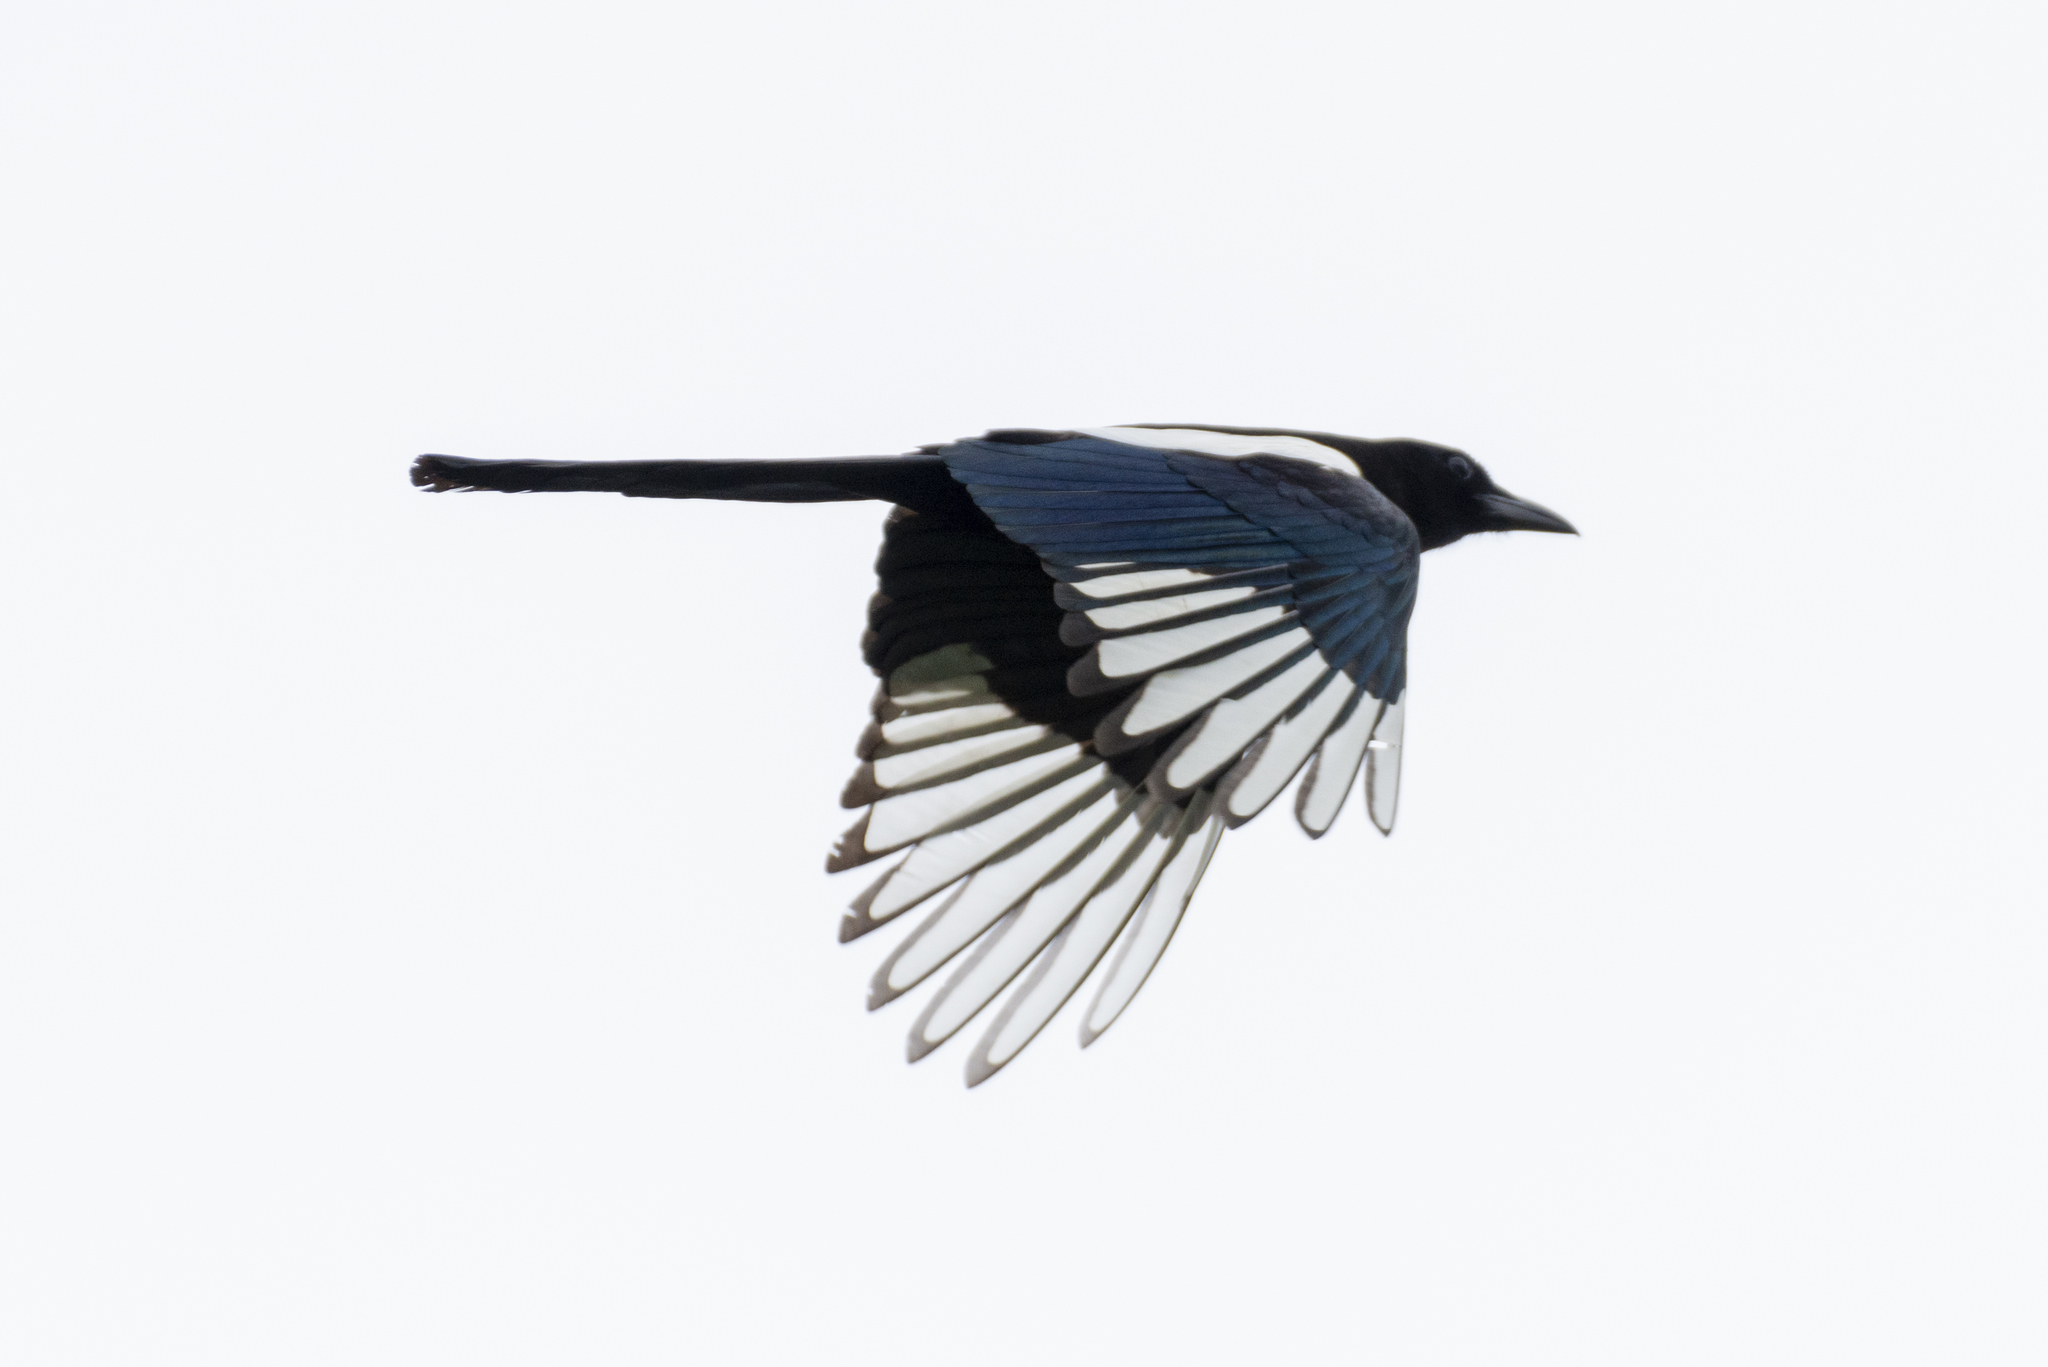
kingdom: Animalia
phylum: Chordata
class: Aves
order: Passeriformes
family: Corvidae
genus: Pica
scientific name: Pica serica
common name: Oriental magpie
